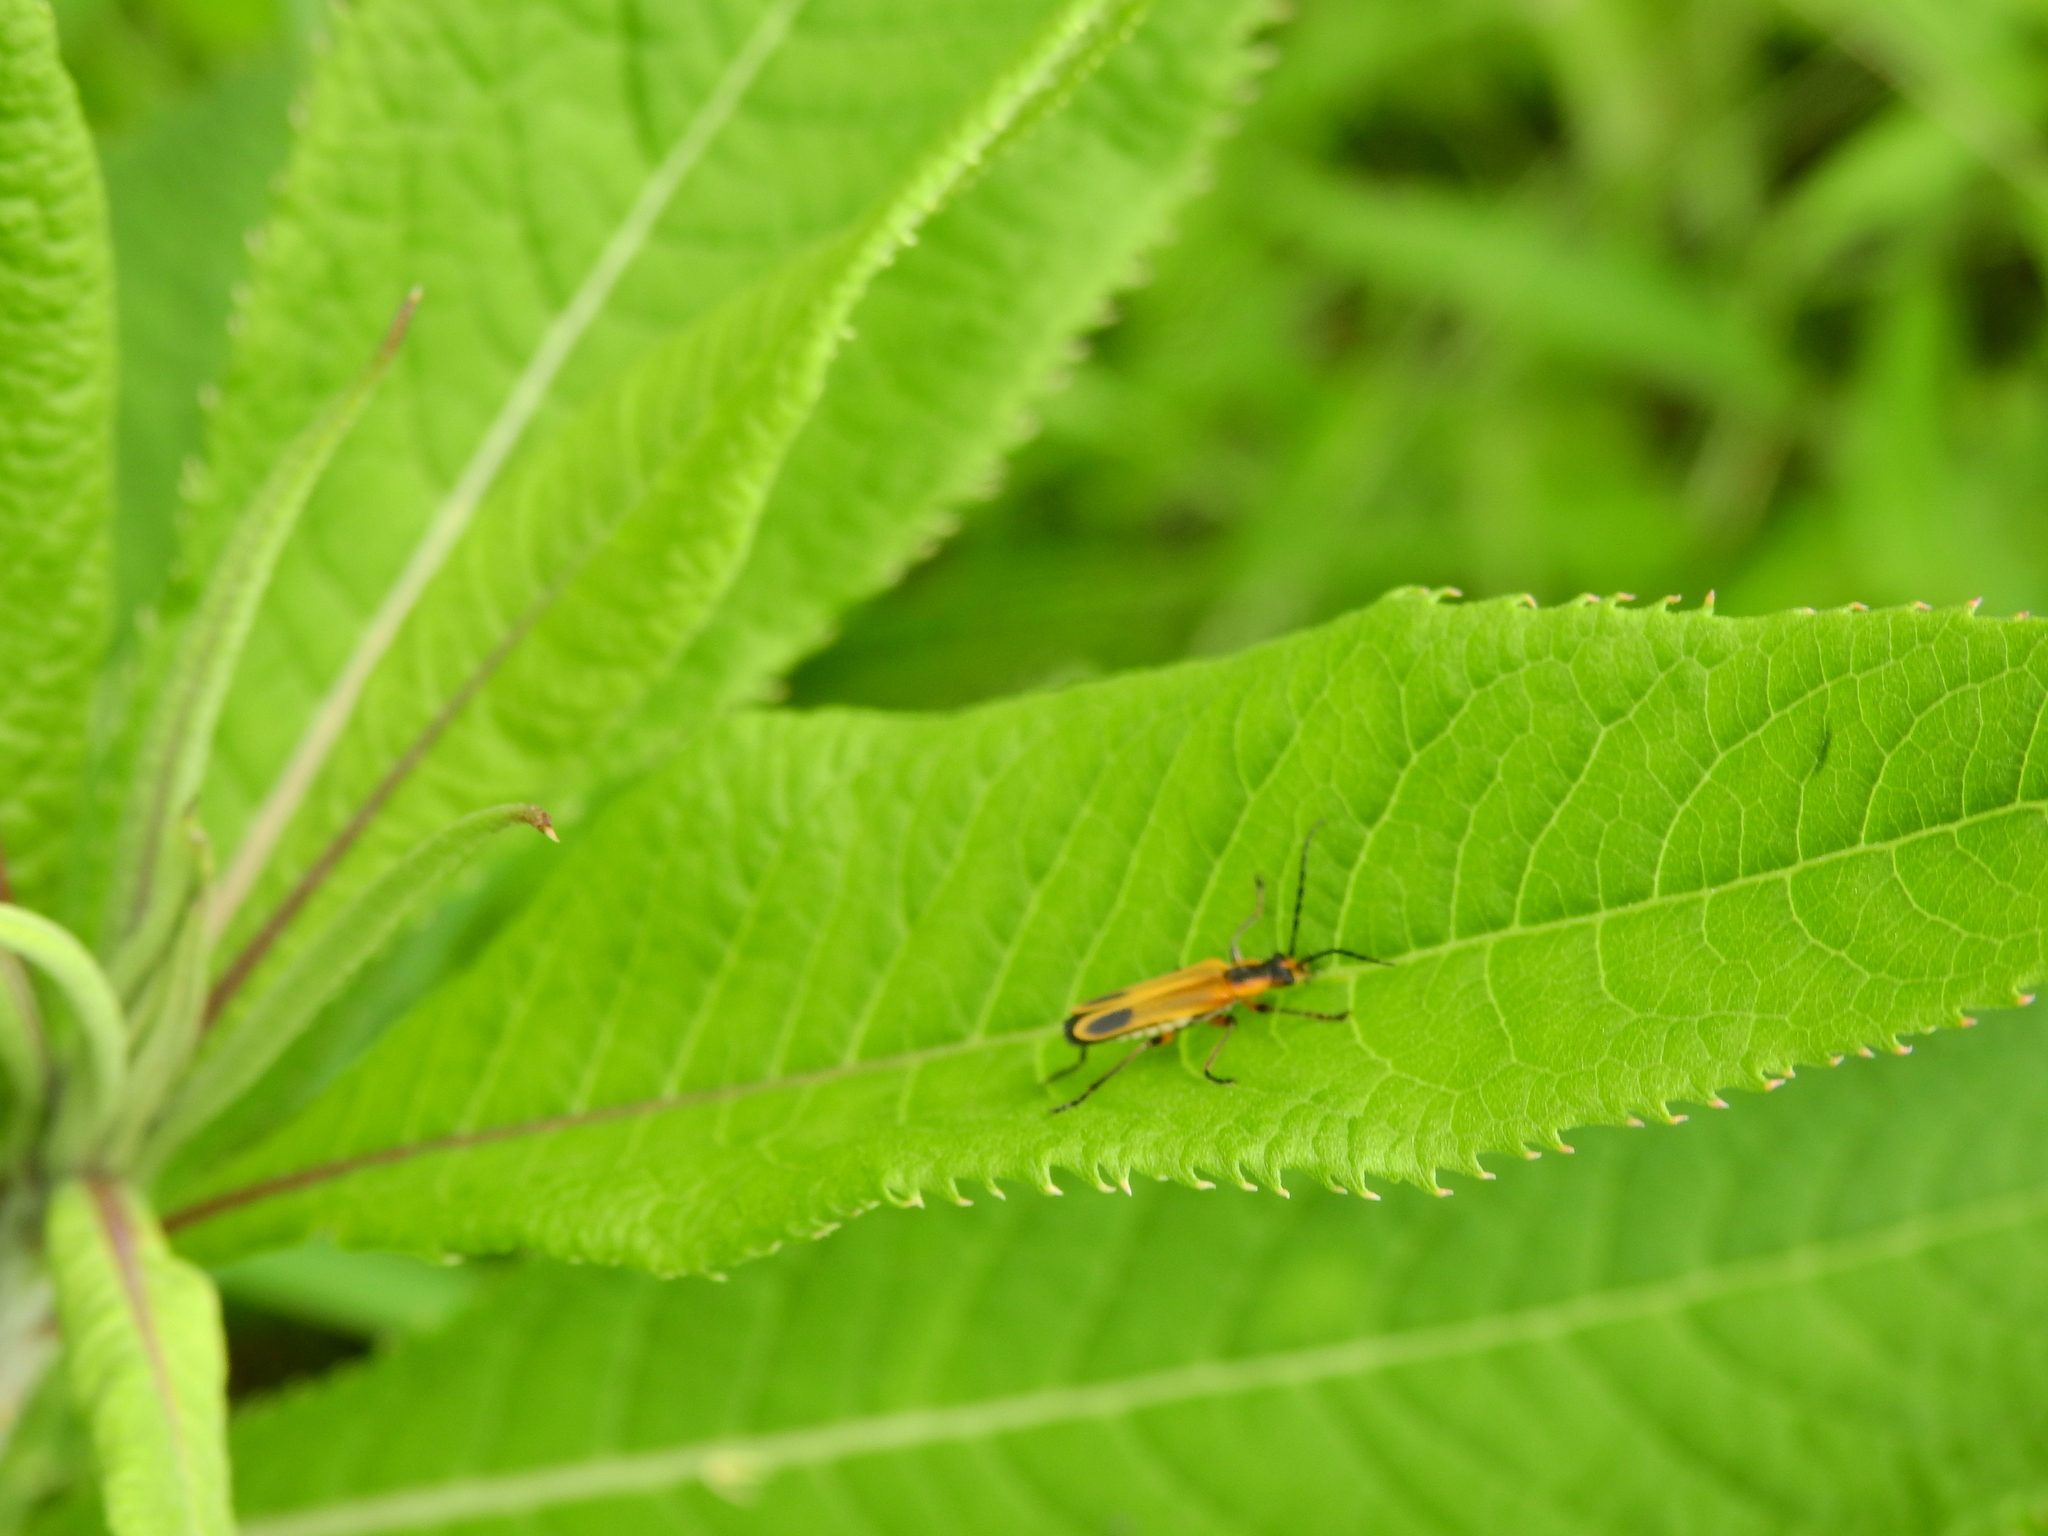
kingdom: Animalia
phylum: Arthropoda
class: Insecta
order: Coleoptera
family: Cantharidae
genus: Chauliognathus
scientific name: Chauliognathus marginatus
